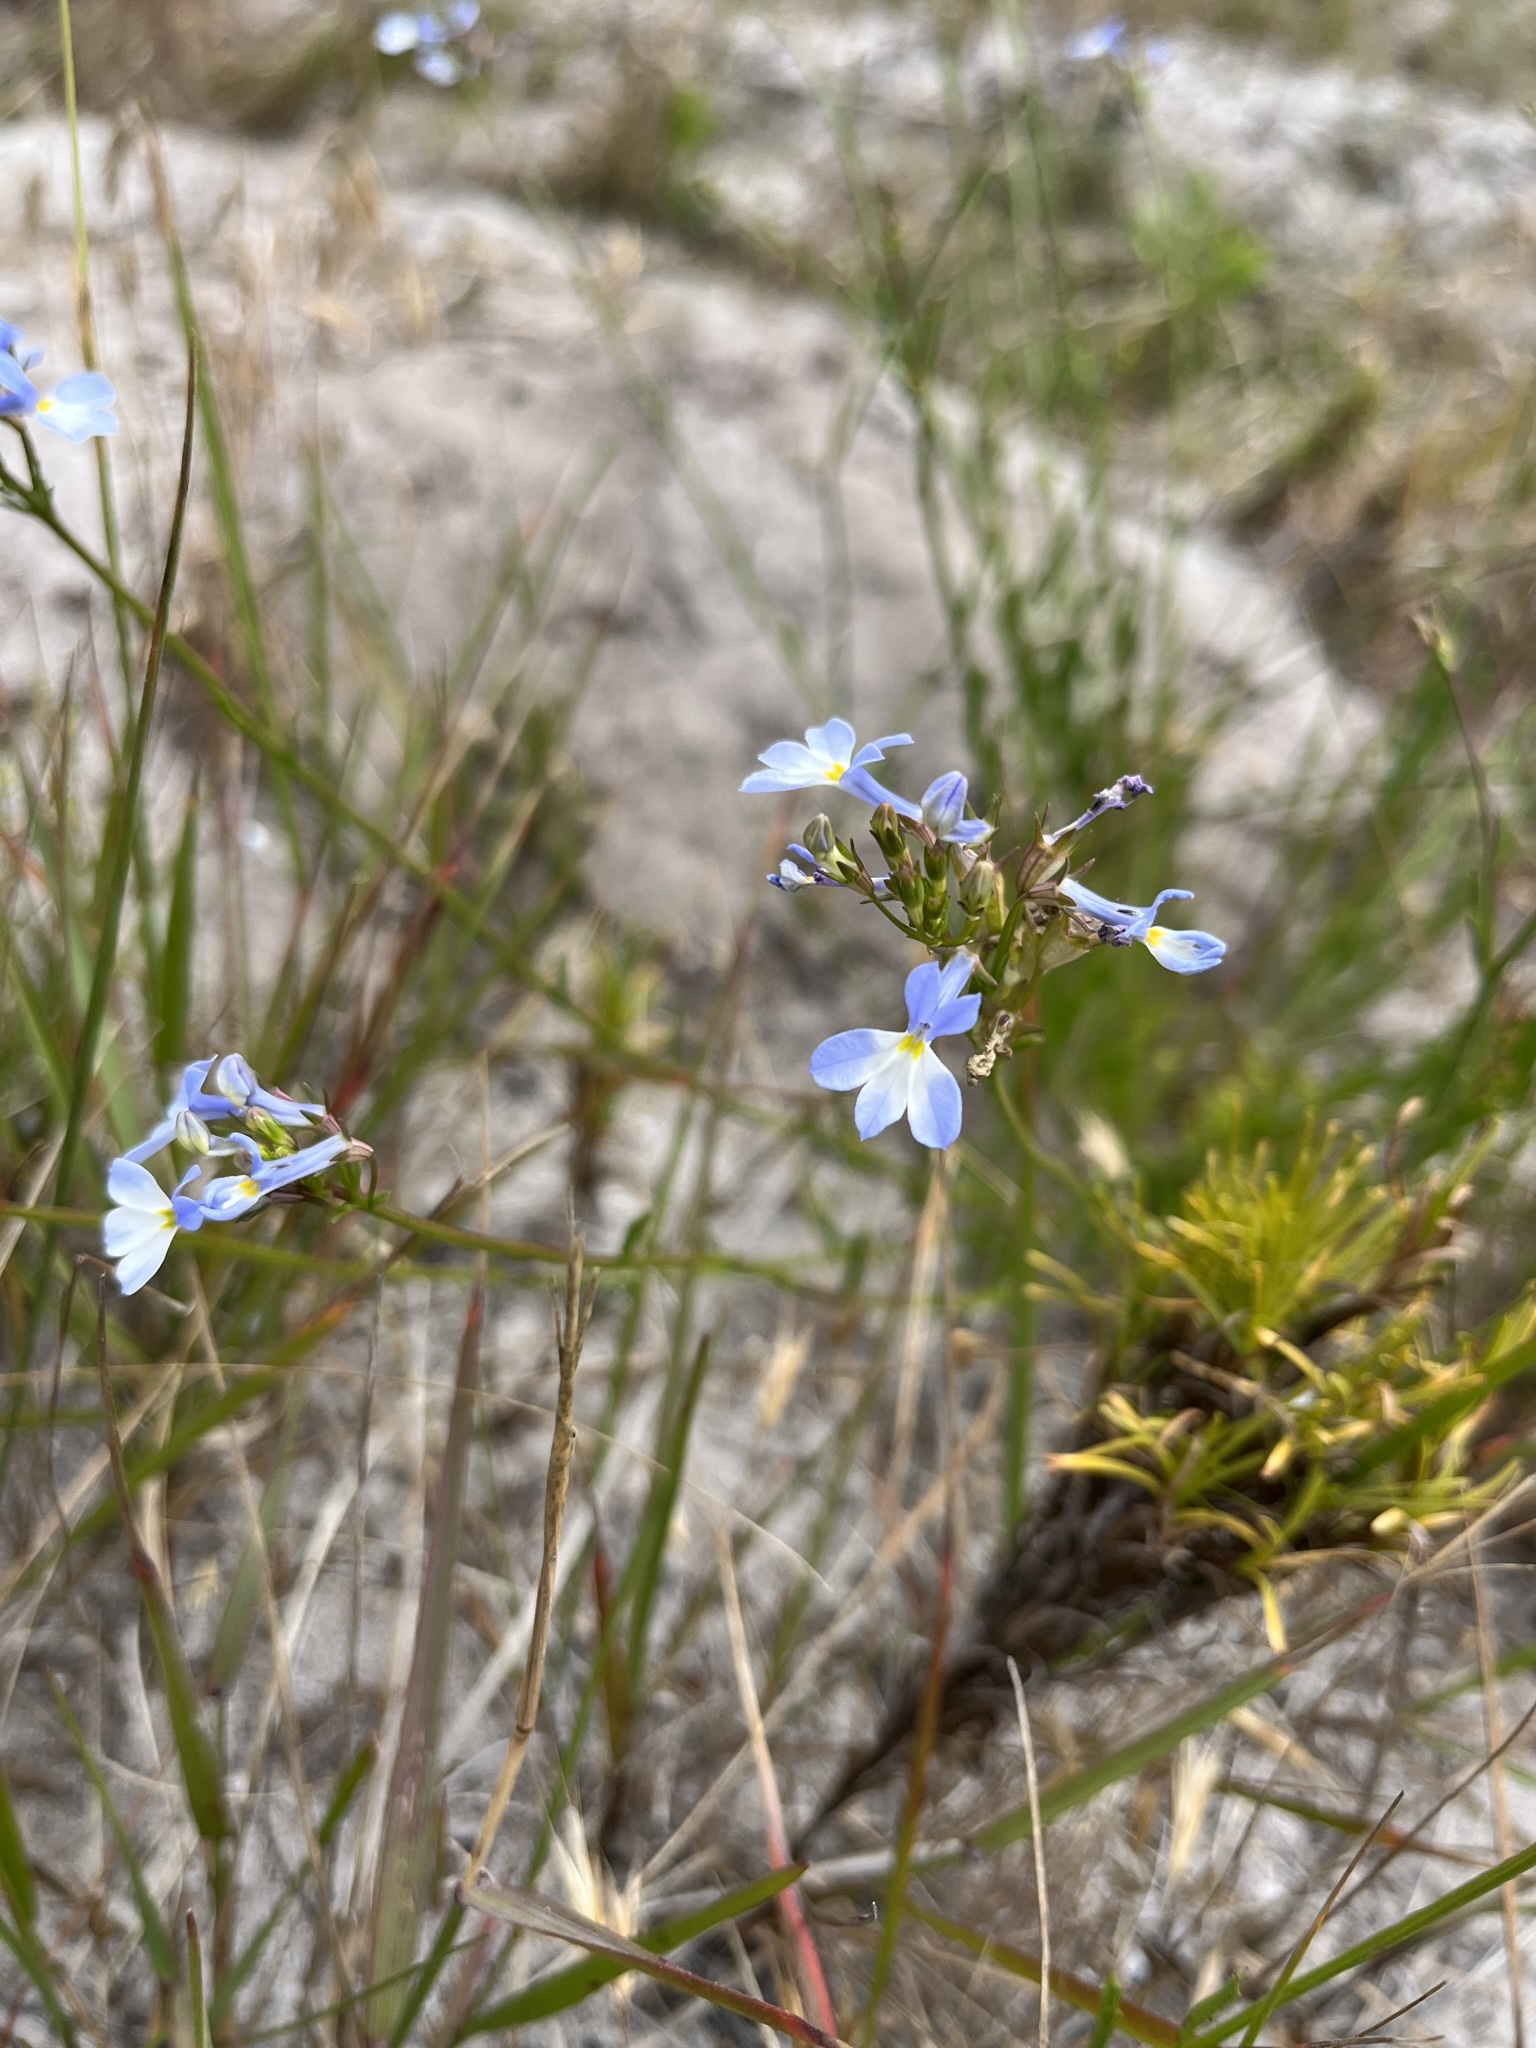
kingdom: Plantae
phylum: Tracheophyta
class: Magnoliopsida
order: Asterales
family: Campanulaceae
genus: Lobelia
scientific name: Lobelia comosa
